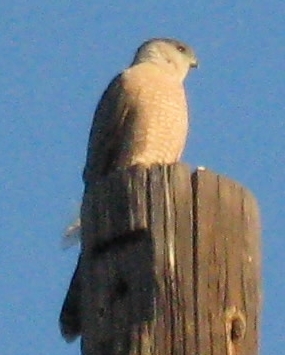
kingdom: Animalia
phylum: Chordata
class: Aves
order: Accipitriformes
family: Accipitridae
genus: Accipiter
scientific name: Accipiter cooperii
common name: Cooper's hawk
